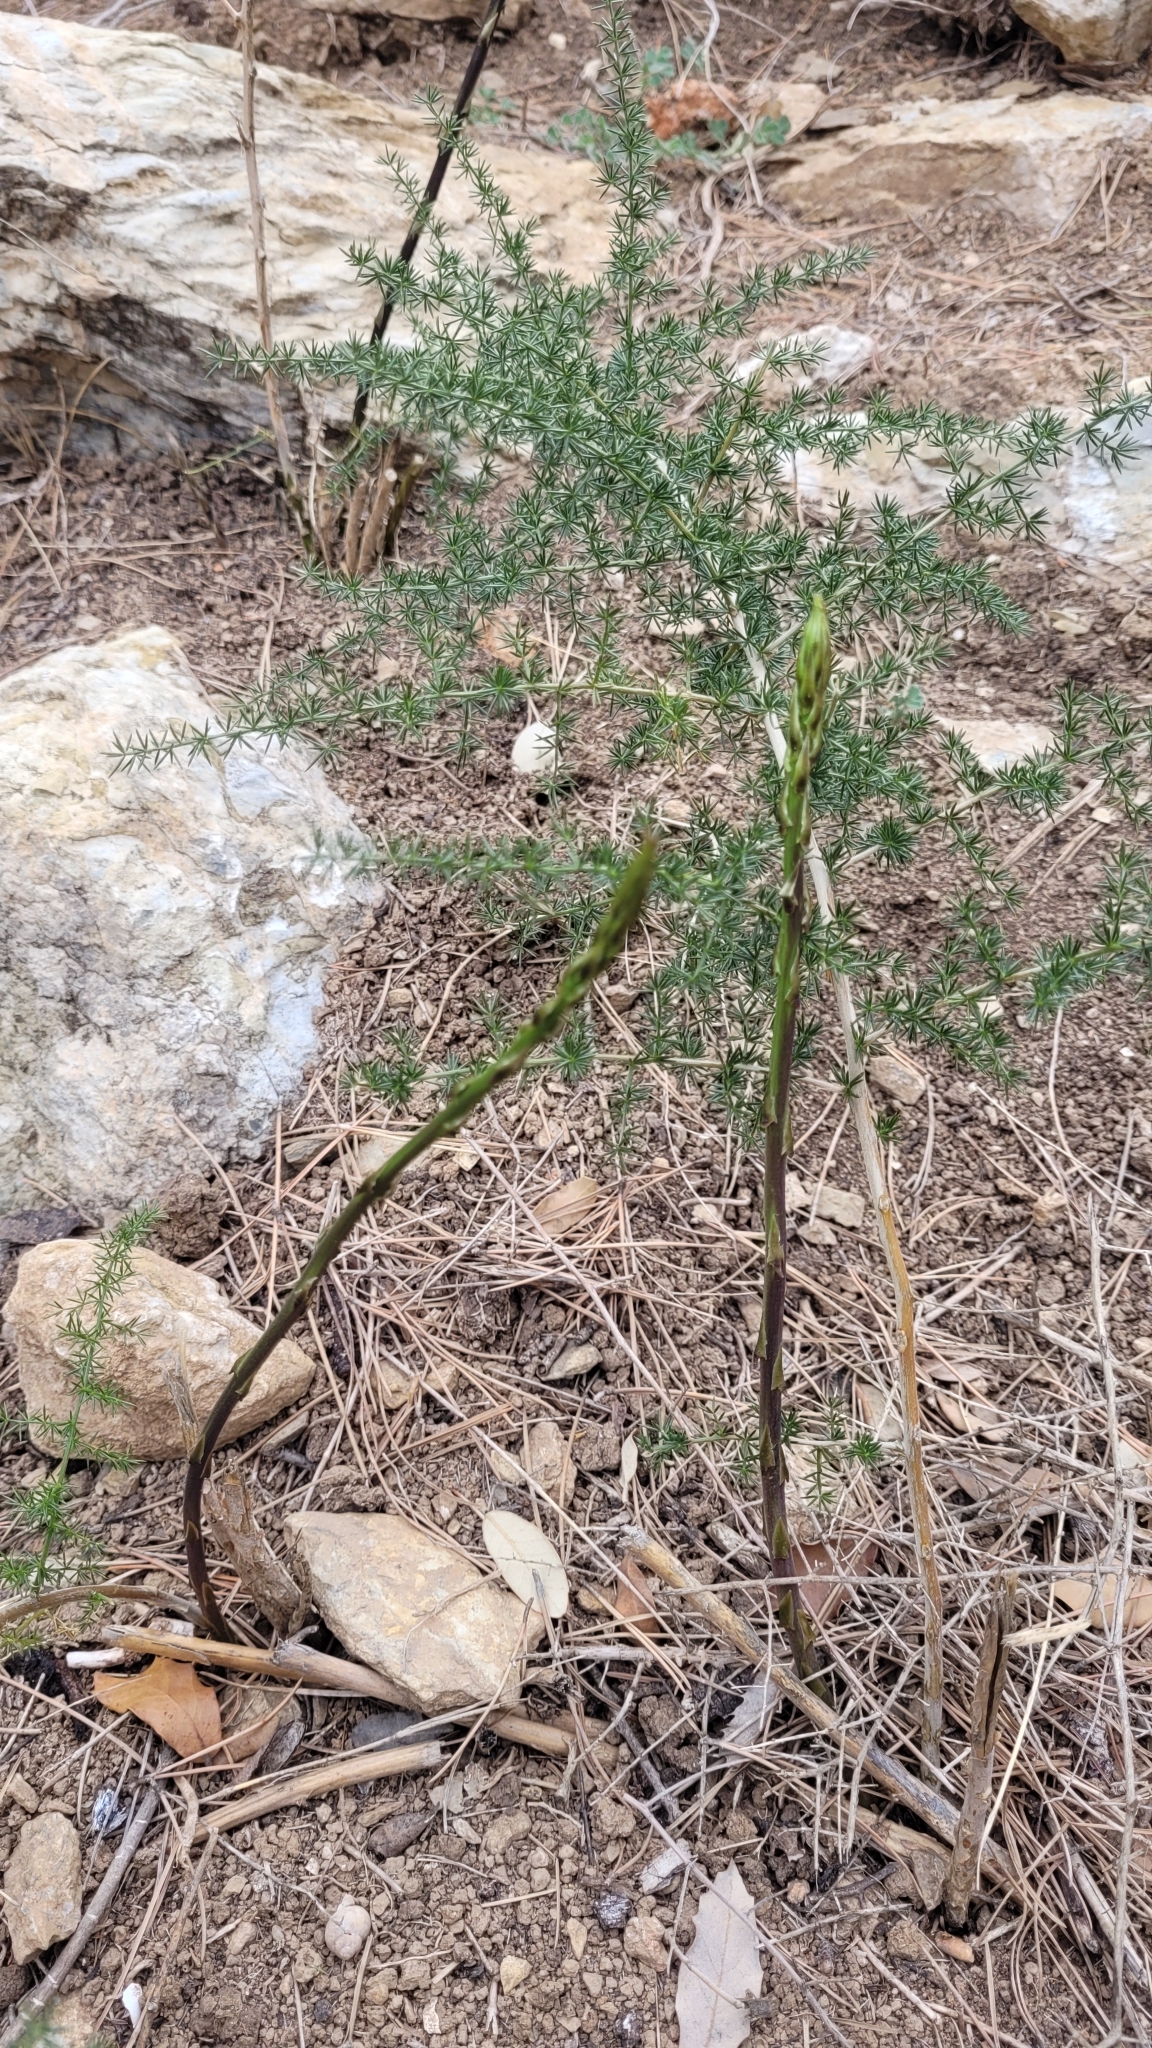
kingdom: Plantae
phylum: Tracheophyta
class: Liliopsida
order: Asparagales
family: Asparagaceae
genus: Asparagus
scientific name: Asparagus acutifolius
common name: Wild asparagus
